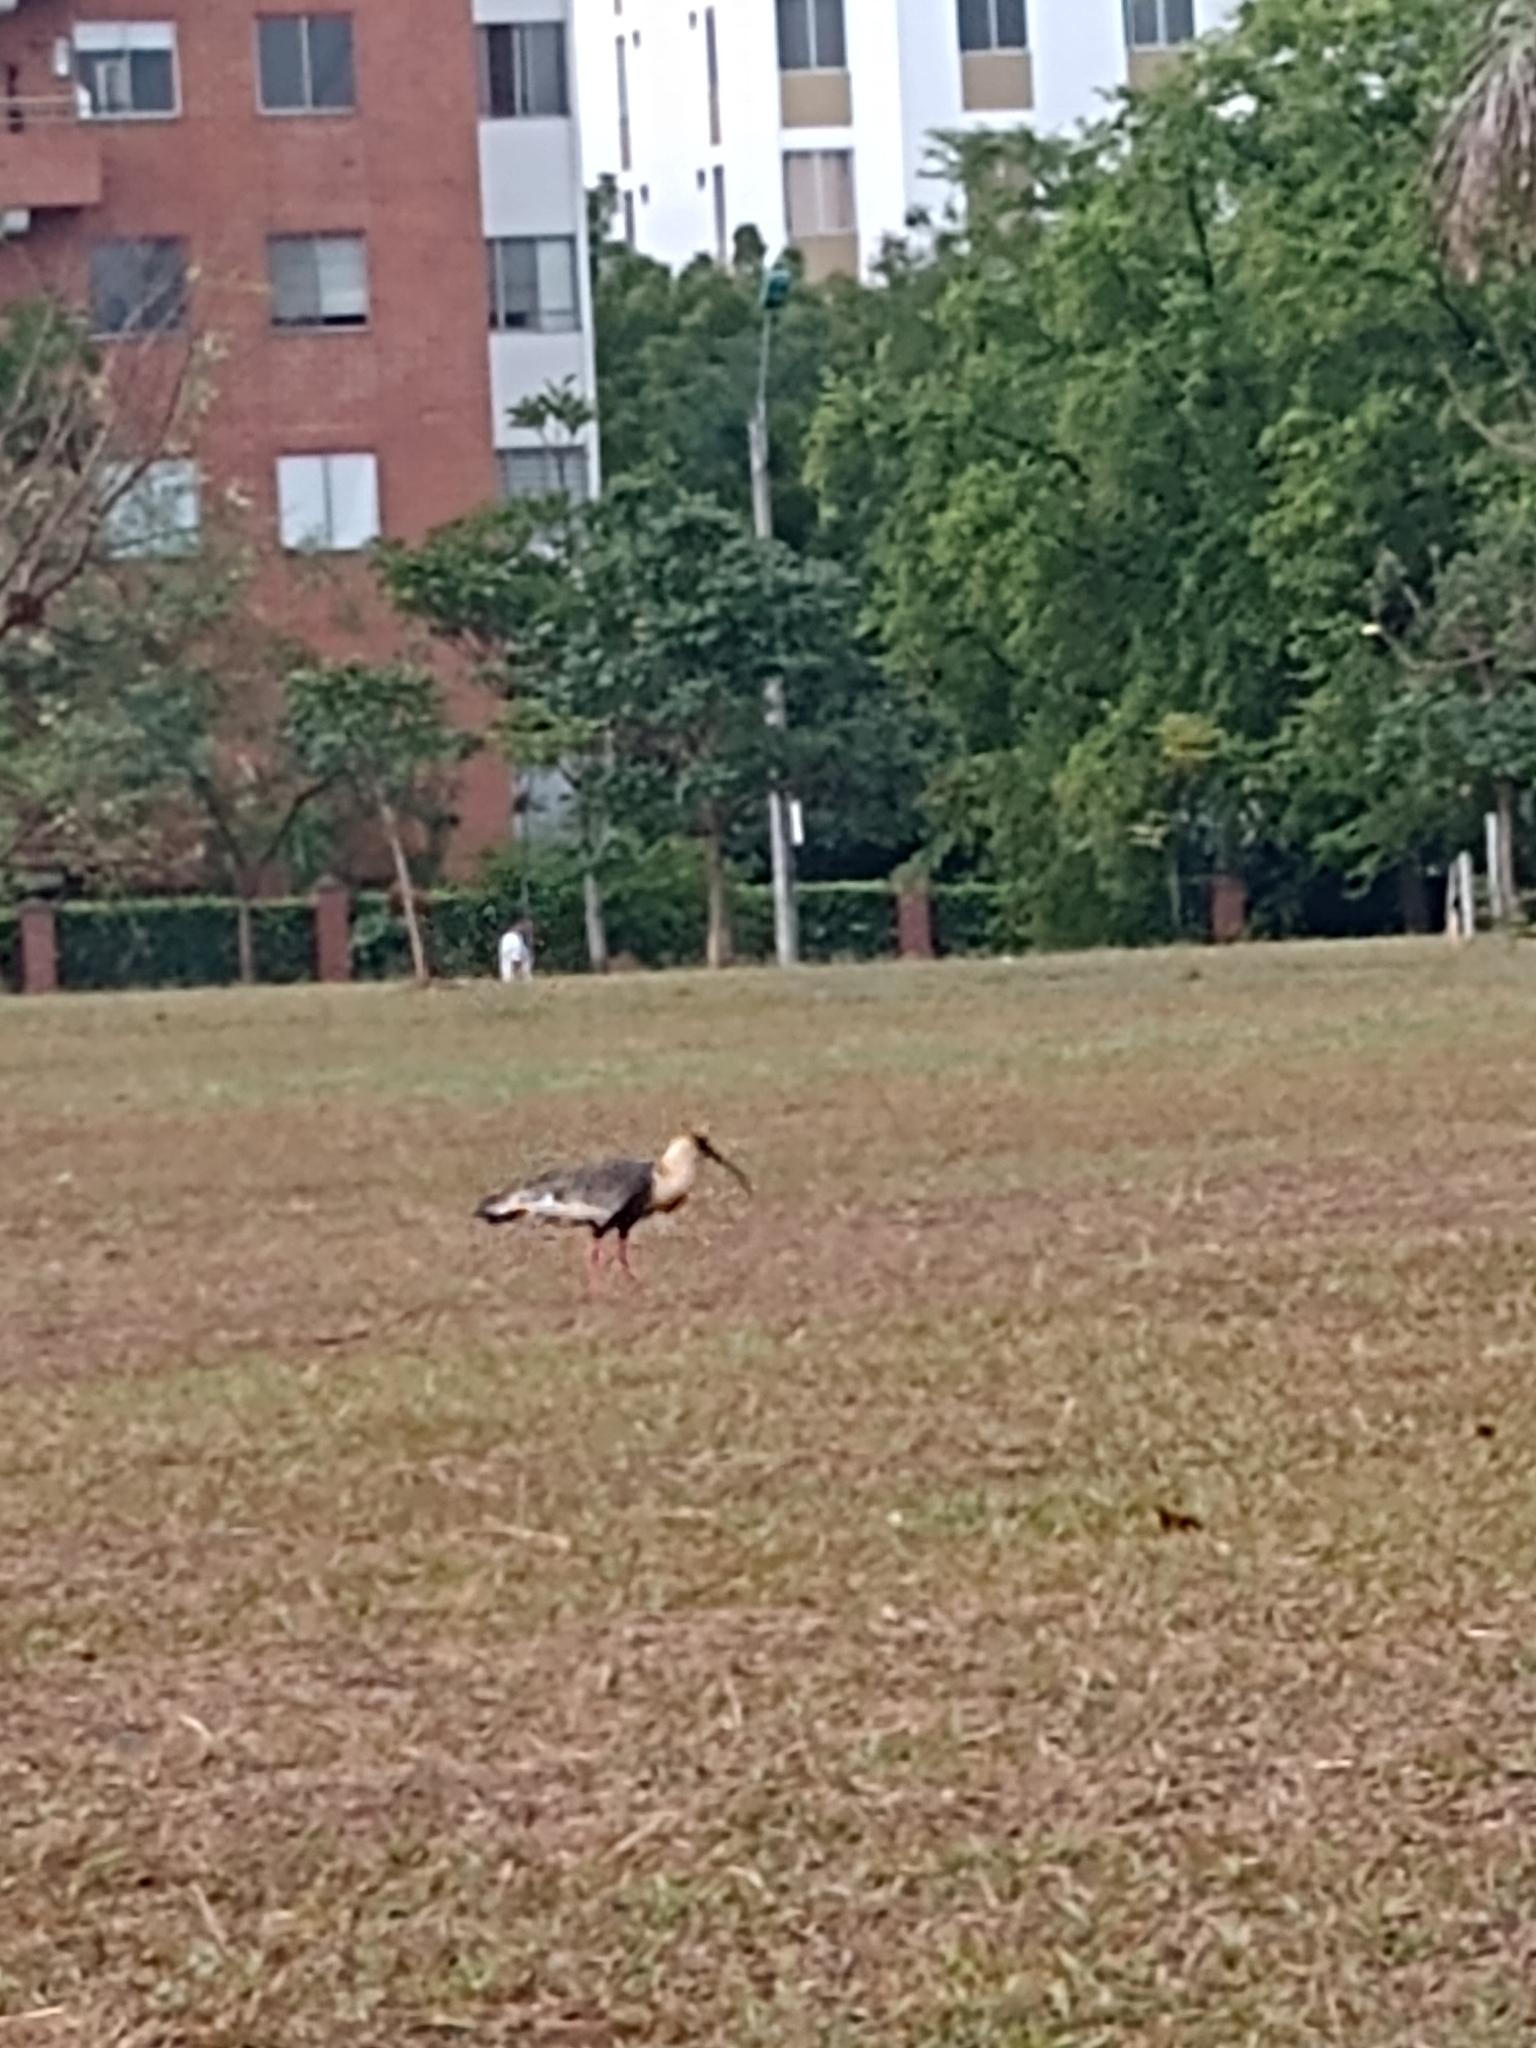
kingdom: Animalia
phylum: Chordata
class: Aves
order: Pelecaniformes
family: Threskiornithidae
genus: Theristicus
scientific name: Theristicus caudatus
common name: Buff-necked ibis
